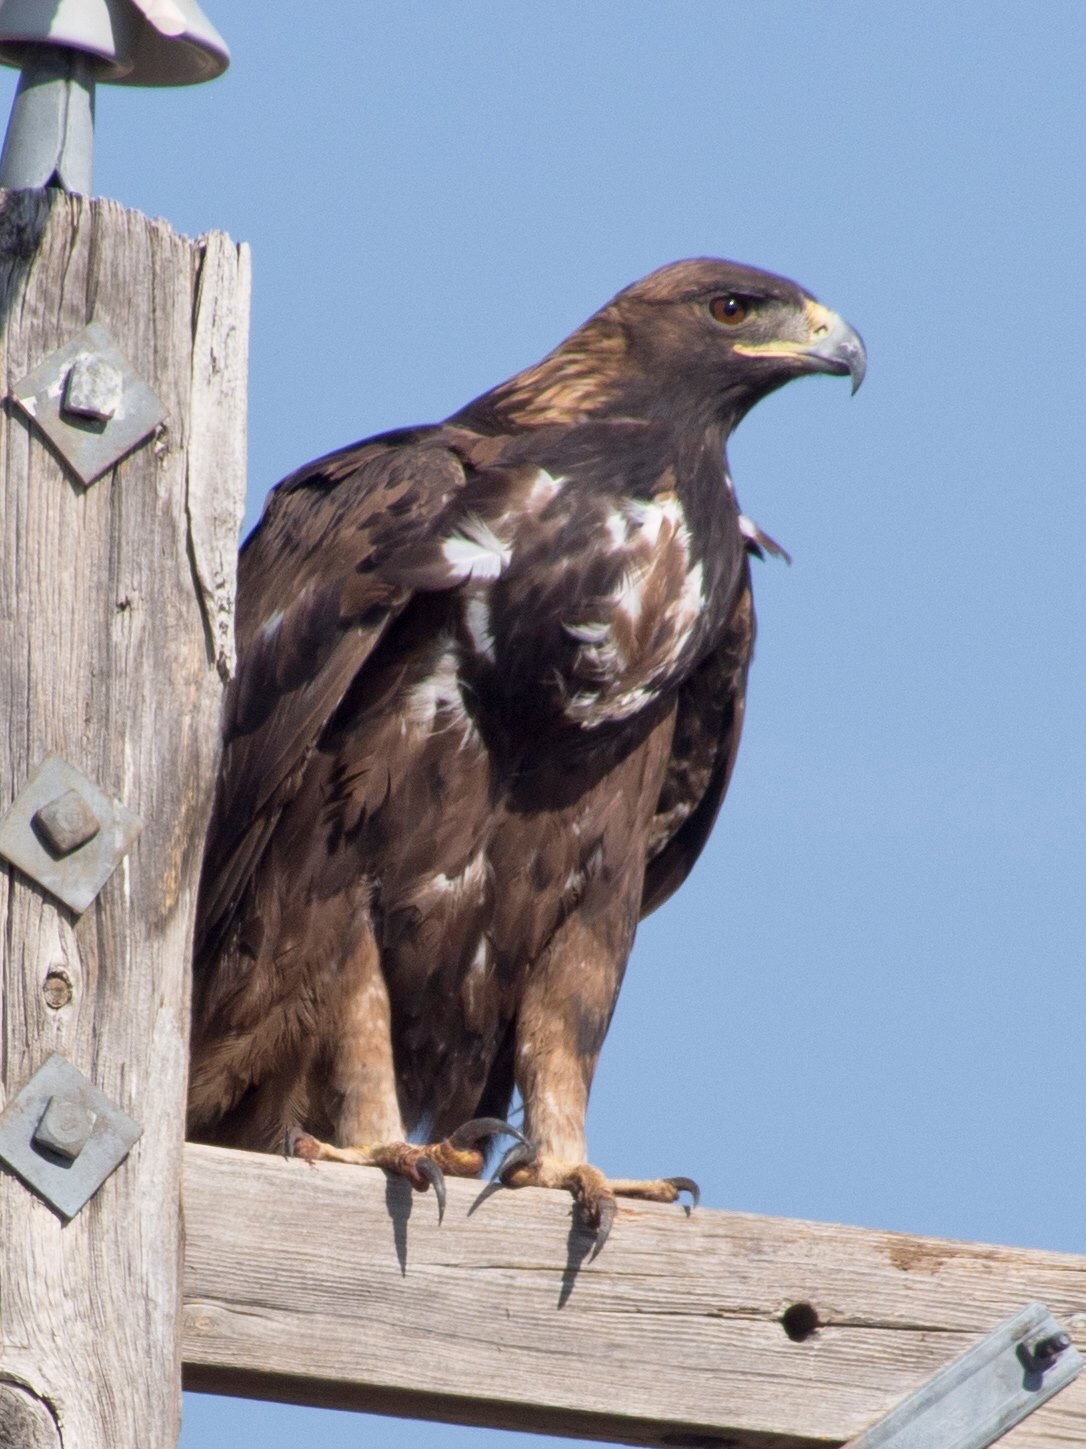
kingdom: Animalia
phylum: Chordata
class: Aves
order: Accipitriformes
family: Accipitridae
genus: Aquila
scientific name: Aquila chrysaetos
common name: Golden eagle
